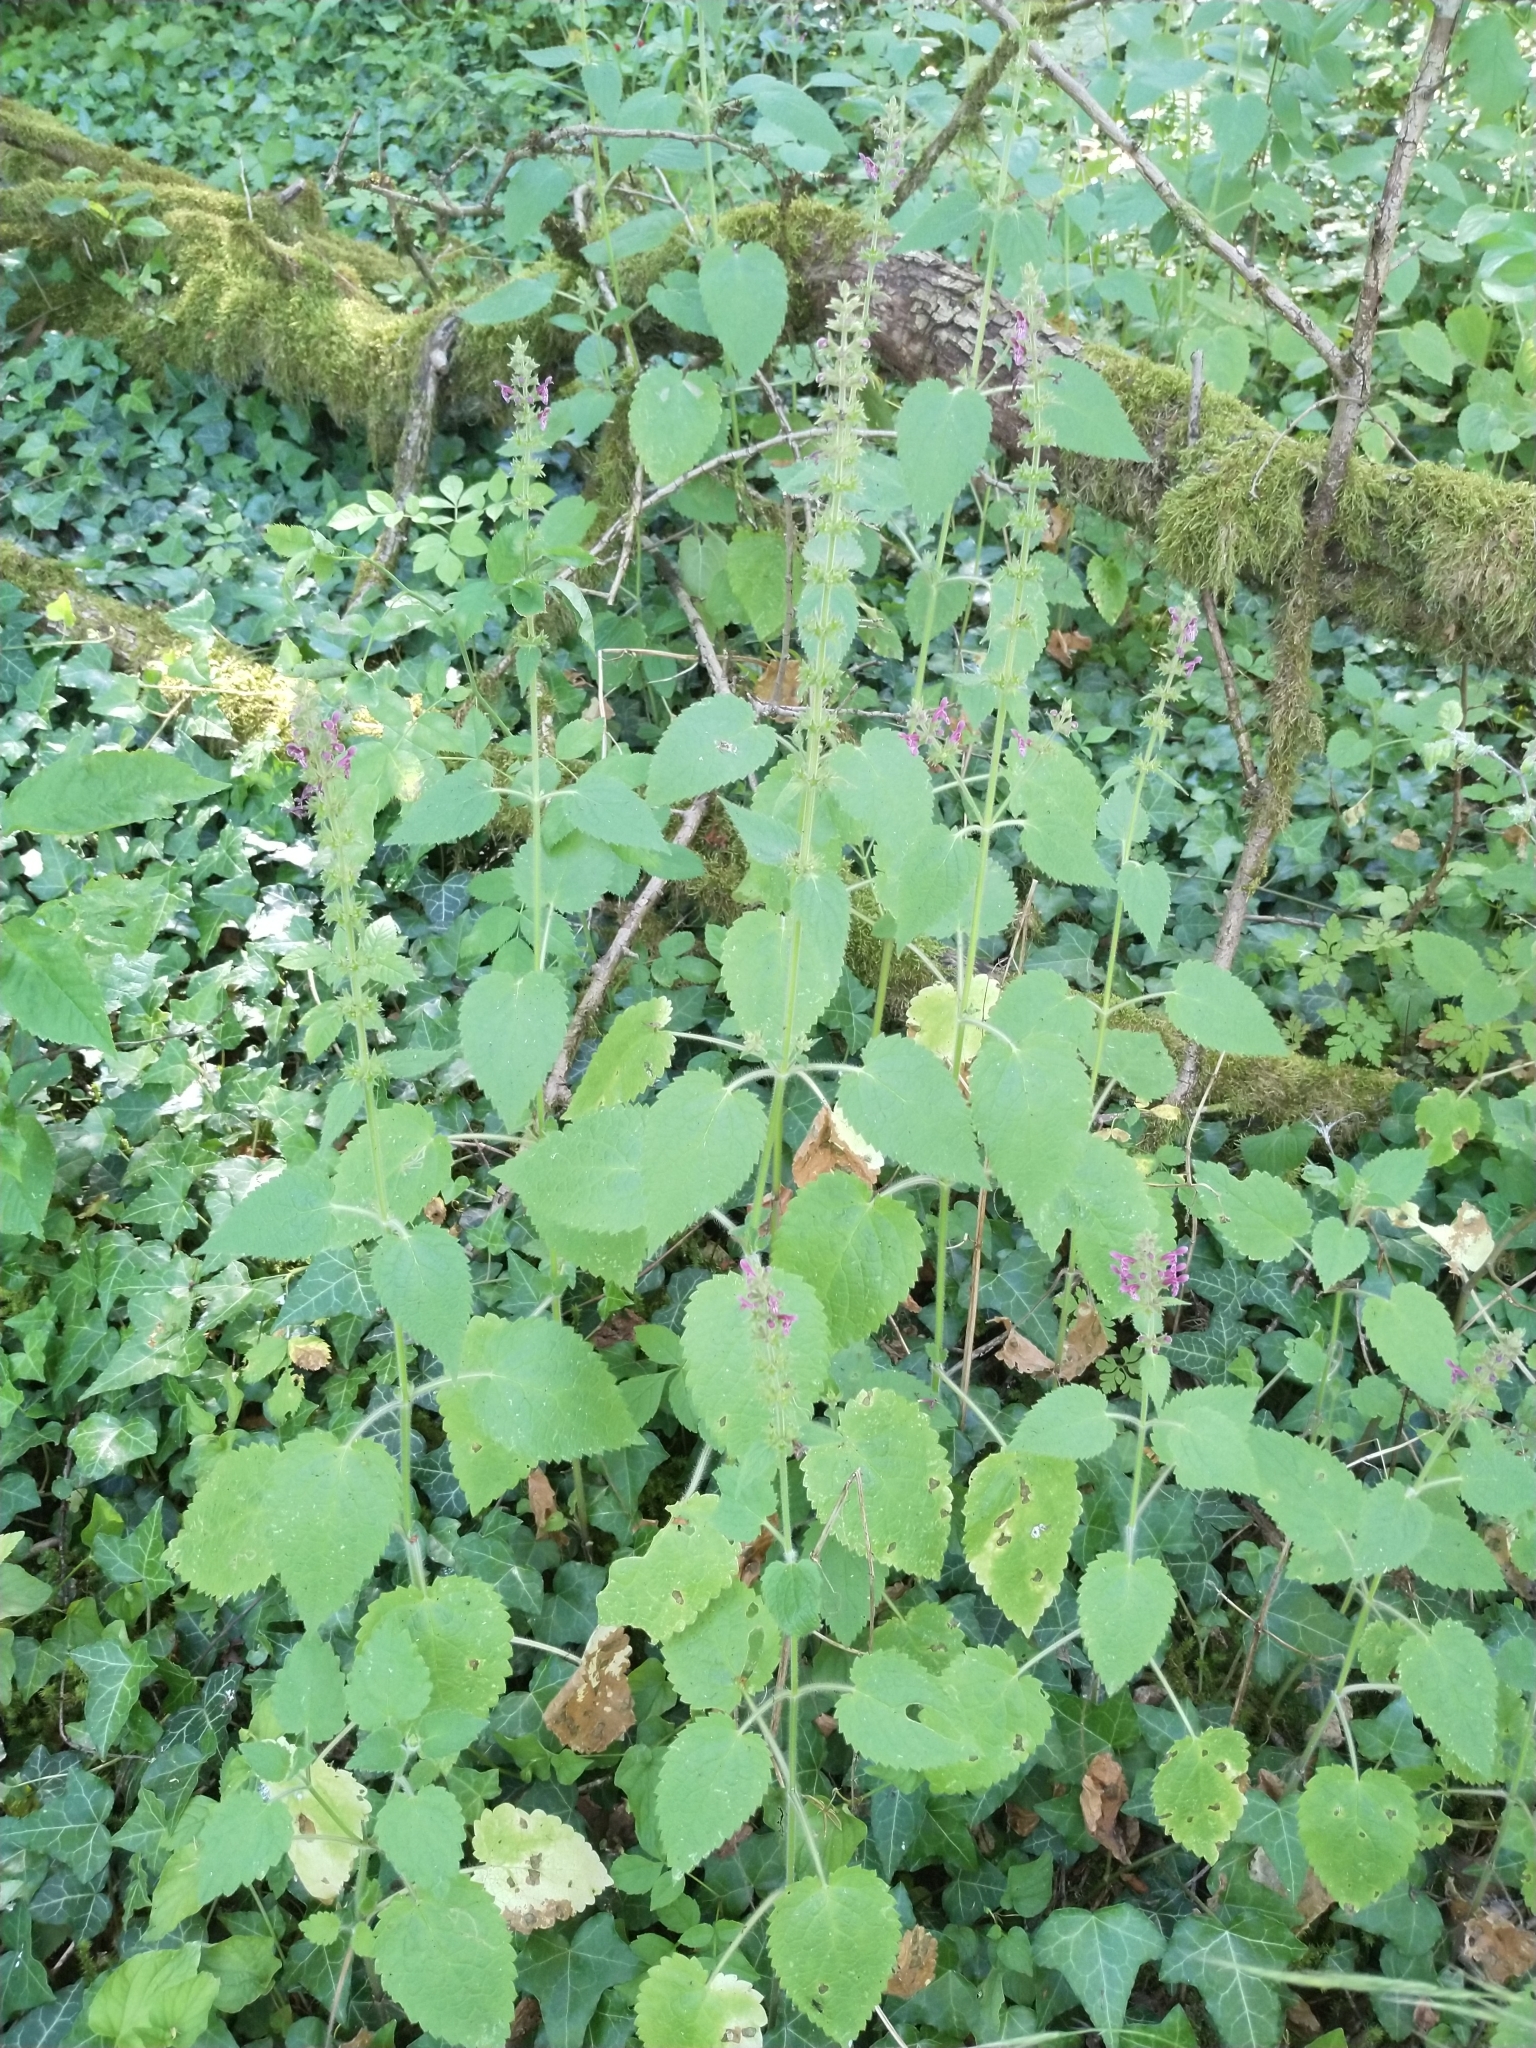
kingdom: Plantae
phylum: Tracheophyta
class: Magnoliopsida
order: Lamiales
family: Lamiaceae
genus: Stachys
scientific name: Stachys sylvatica
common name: Hedge woundwort
